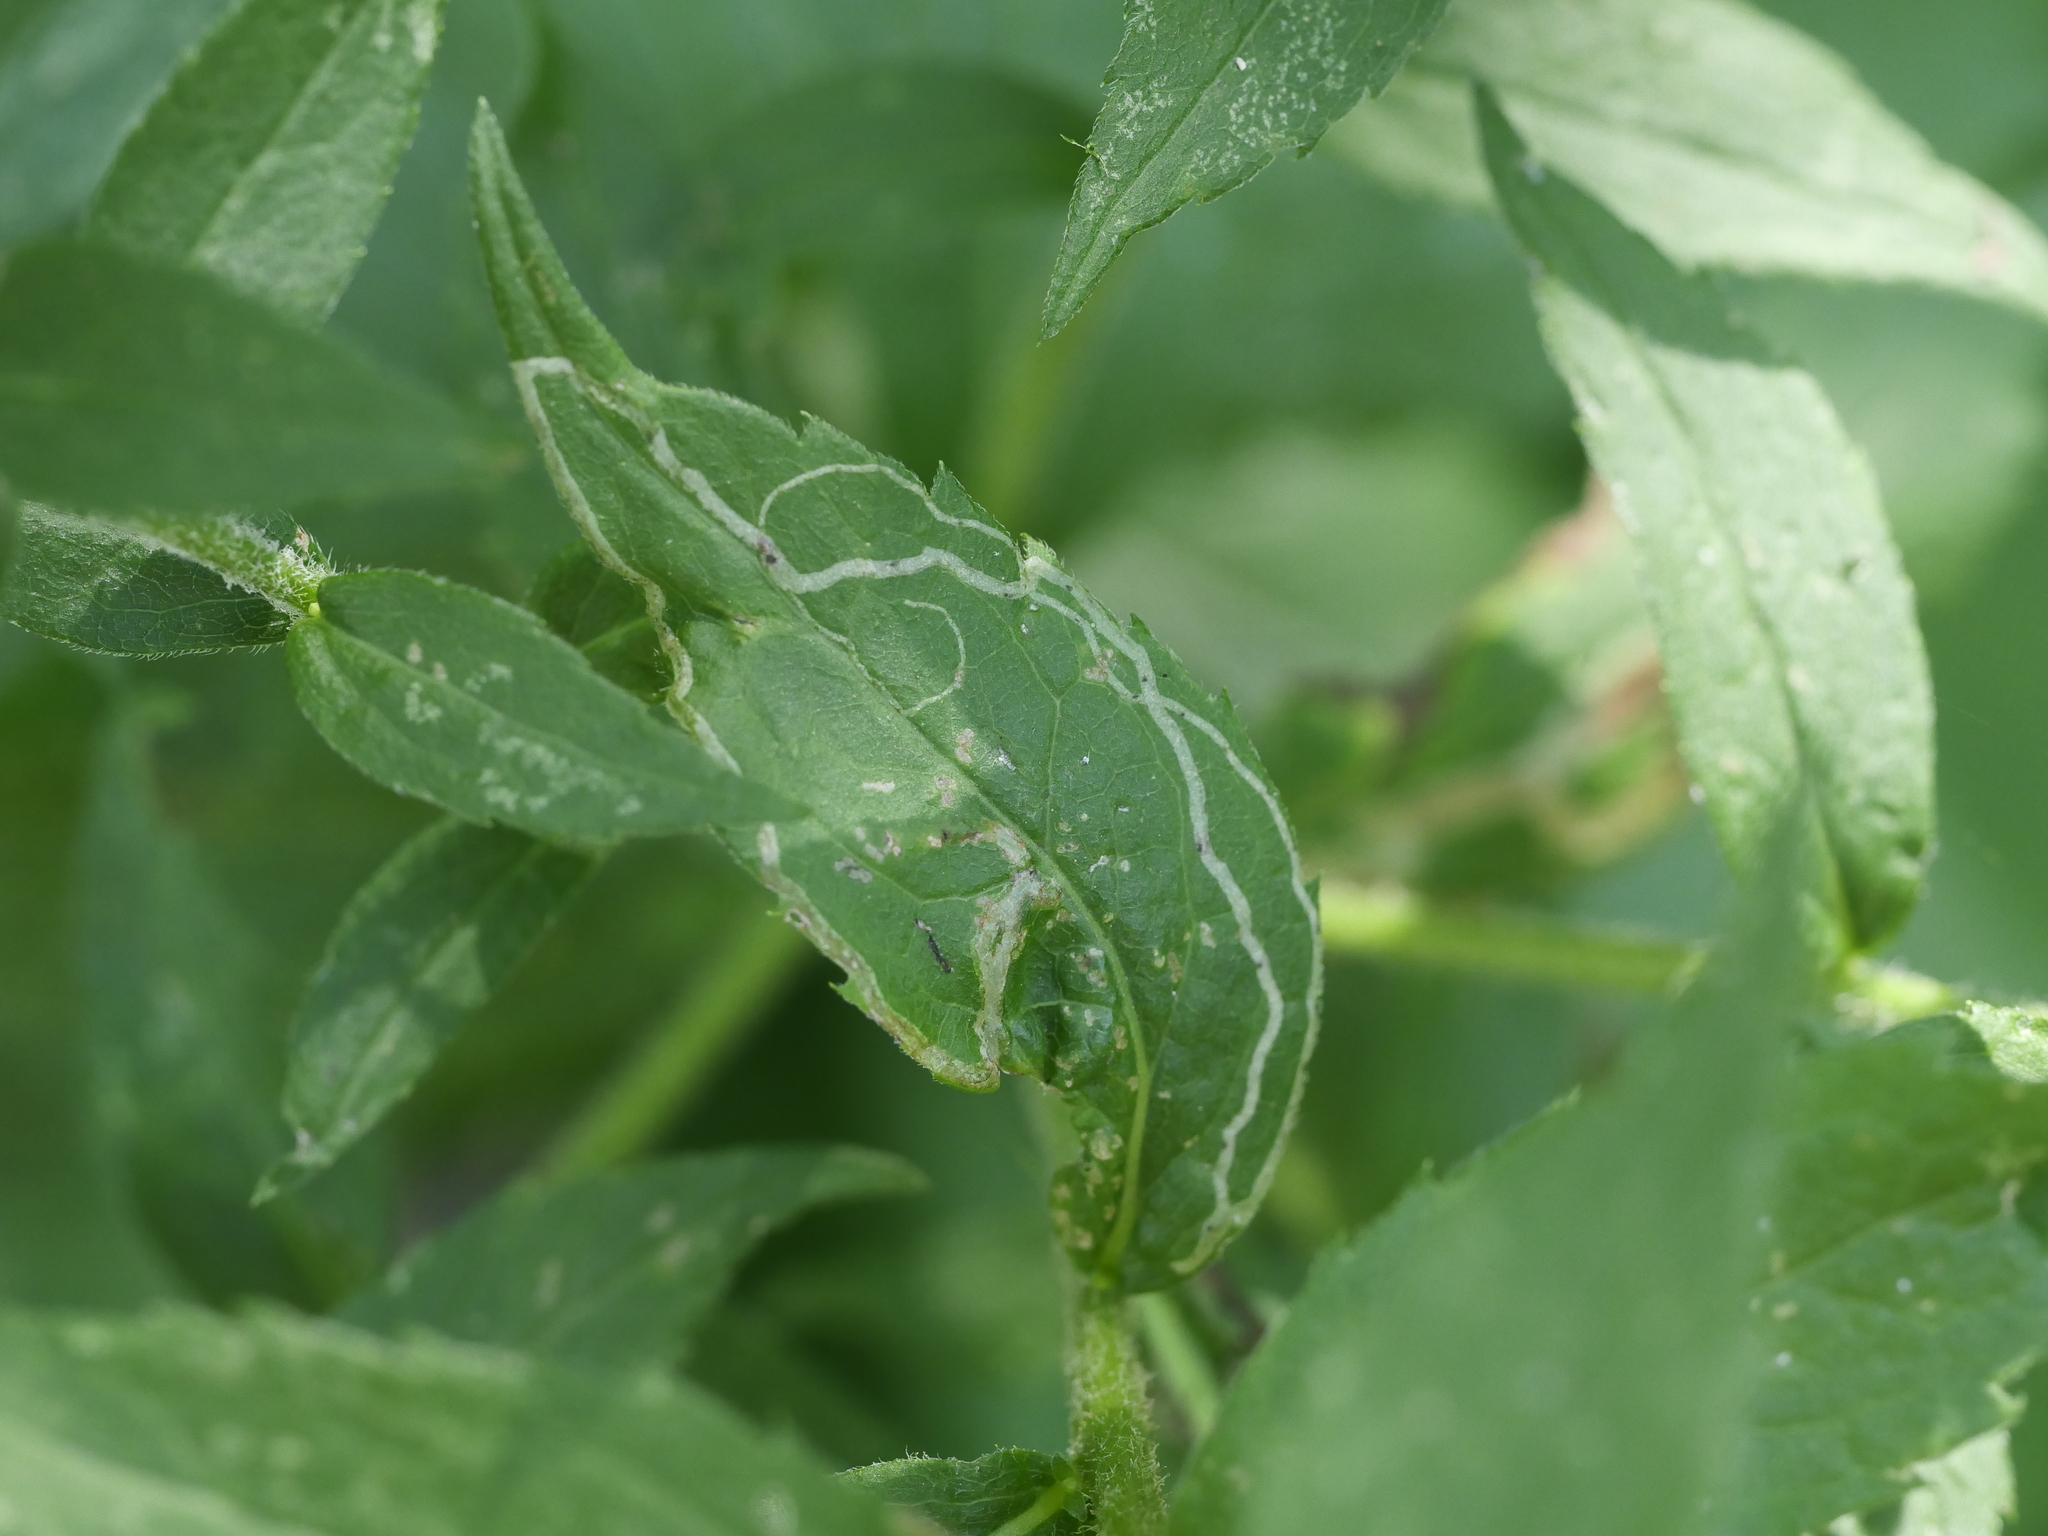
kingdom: Animalia
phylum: Arthropoda
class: Insecta
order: Diptera
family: Agromyzidae
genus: Ophiomyia
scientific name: Ophiomyia maura
